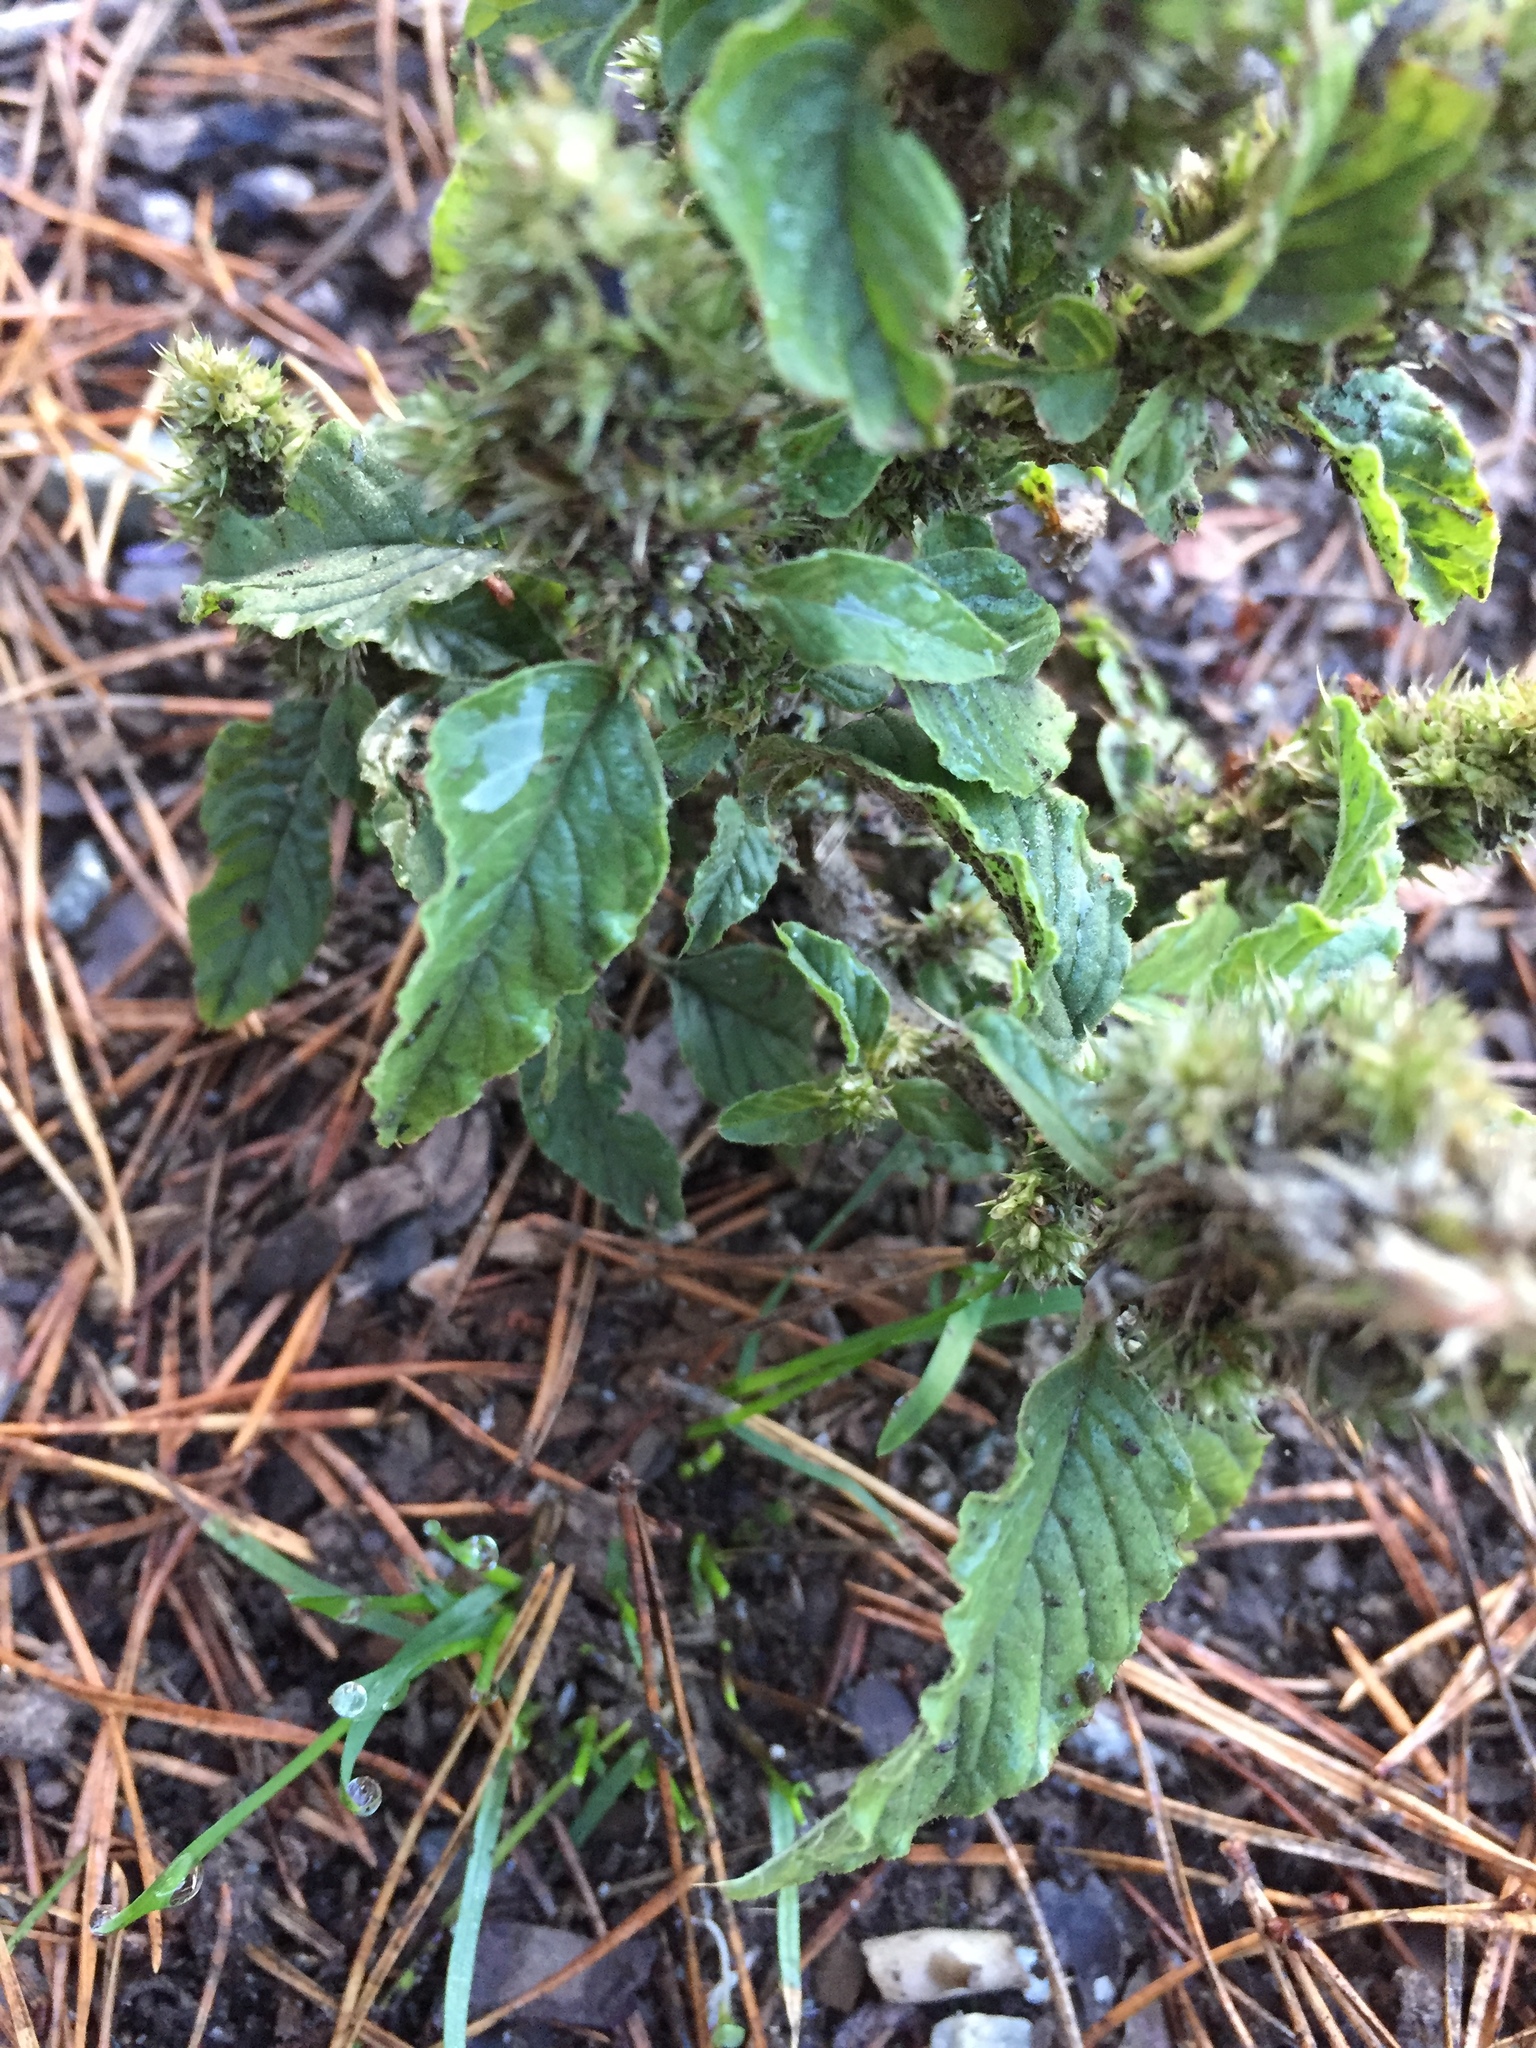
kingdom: Plantae
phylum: Tracheophyta
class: Magnoliopsida
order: Caryophyllales
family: Amaranthaceae
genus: Amaranthus
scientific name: Amaranthus retroflexus
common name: Redroot amaranth
